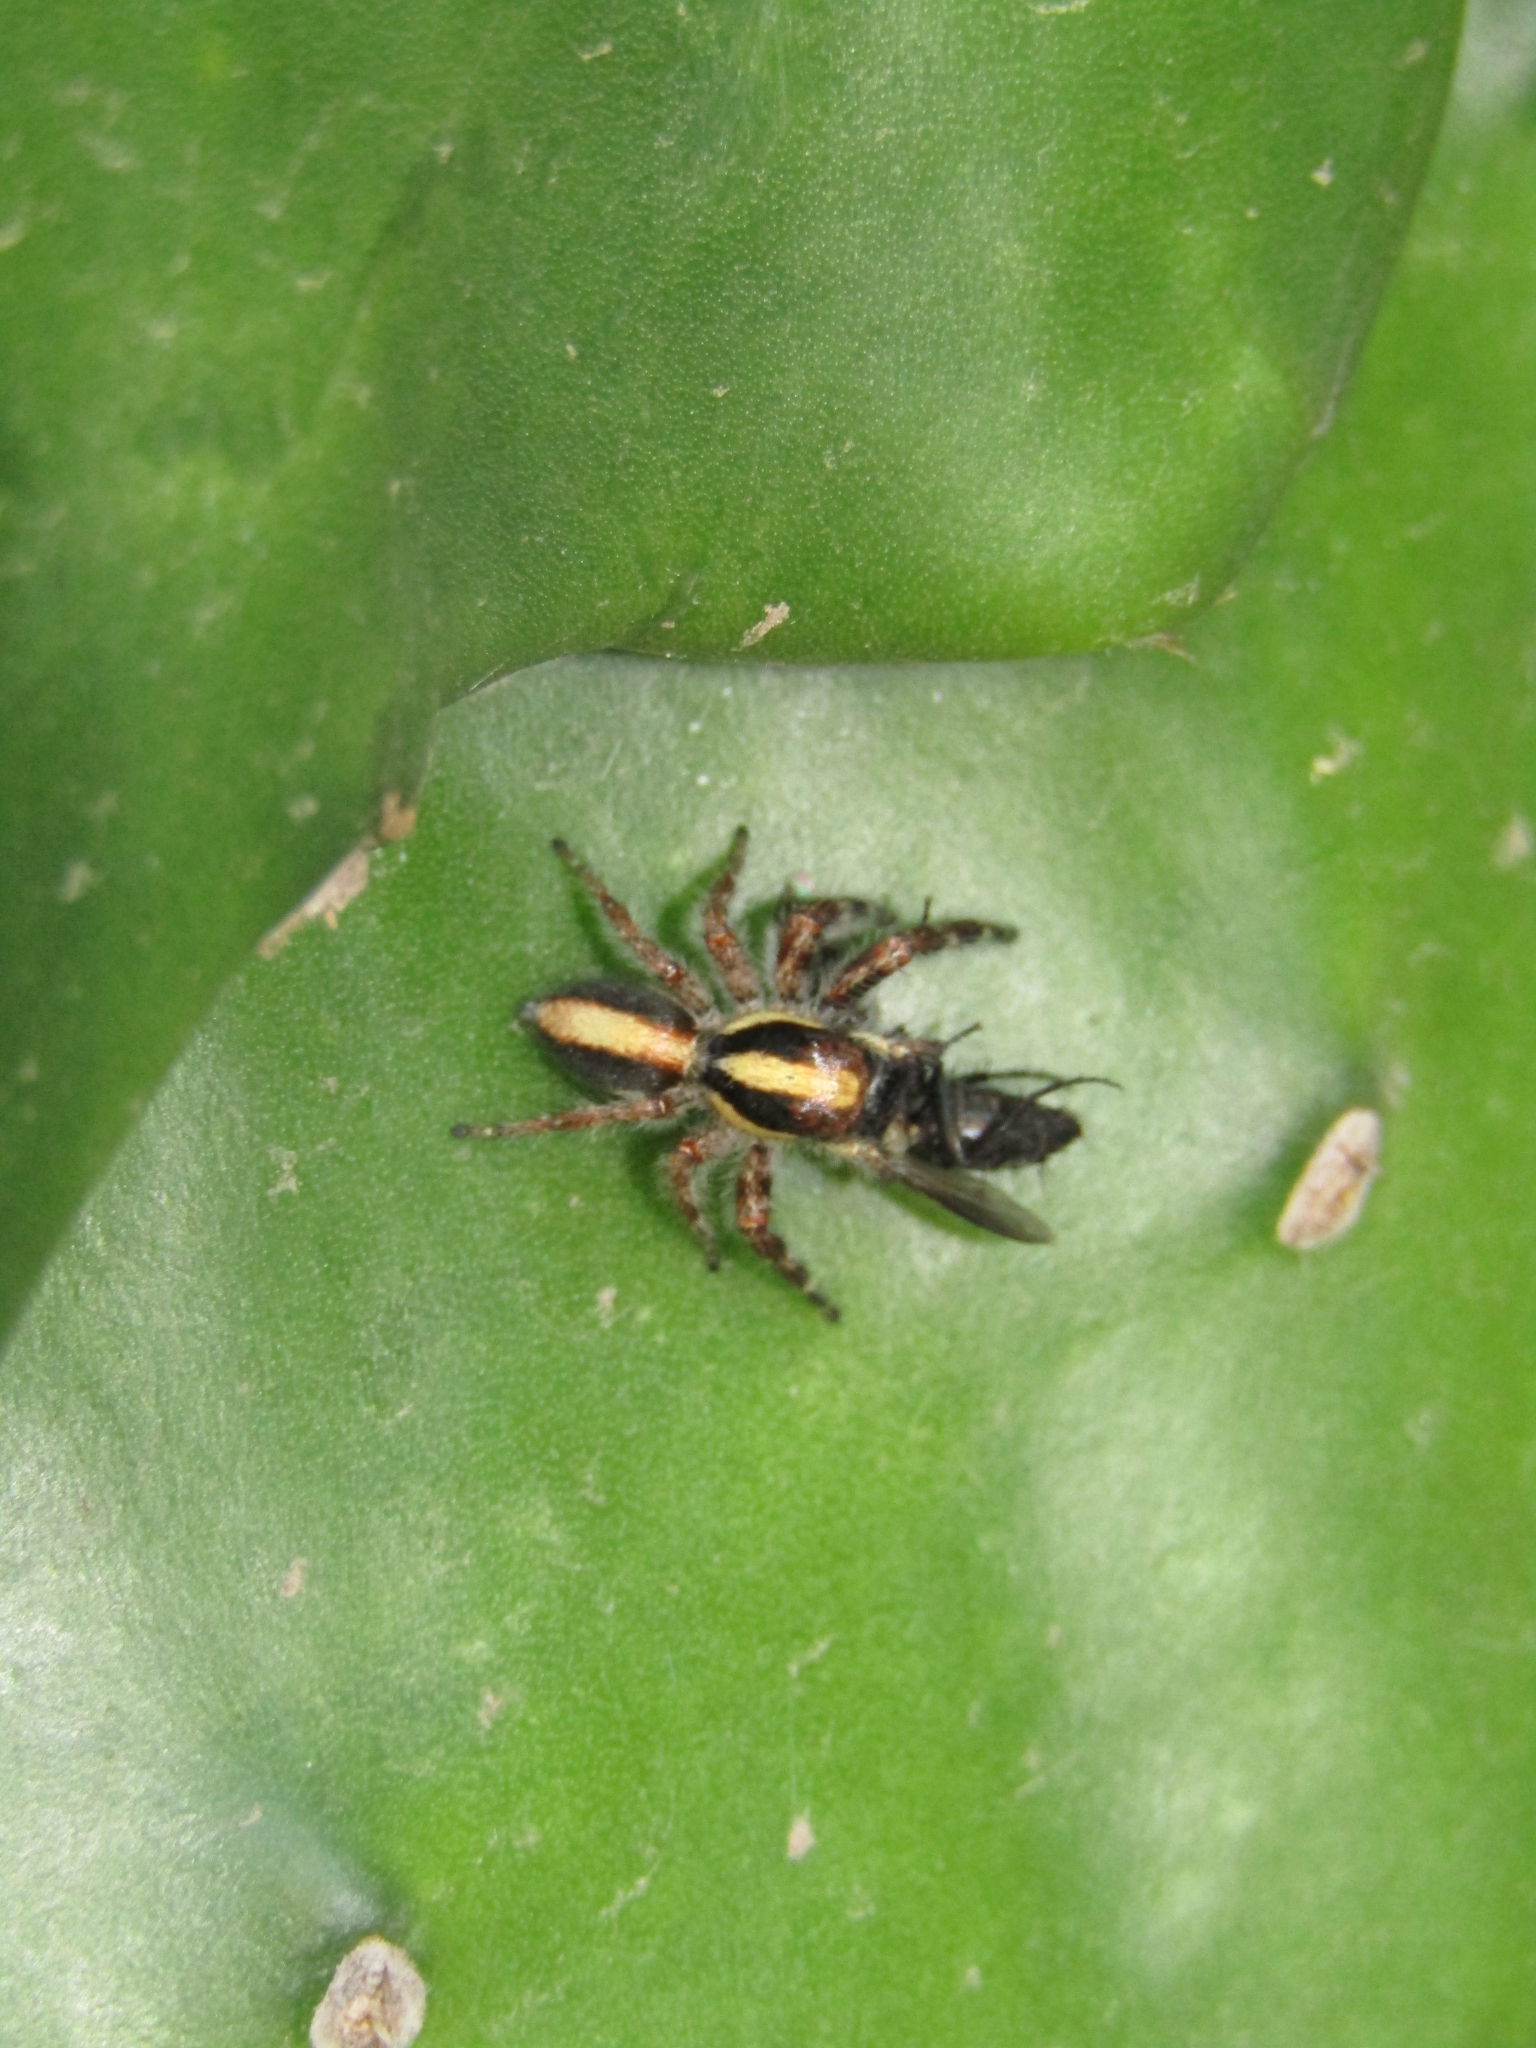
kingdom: Animalia
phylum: Arthropoda
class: Arachnida
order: Araneae
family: Salticidae
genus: Megafreya
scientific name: Megafreya sutrix
